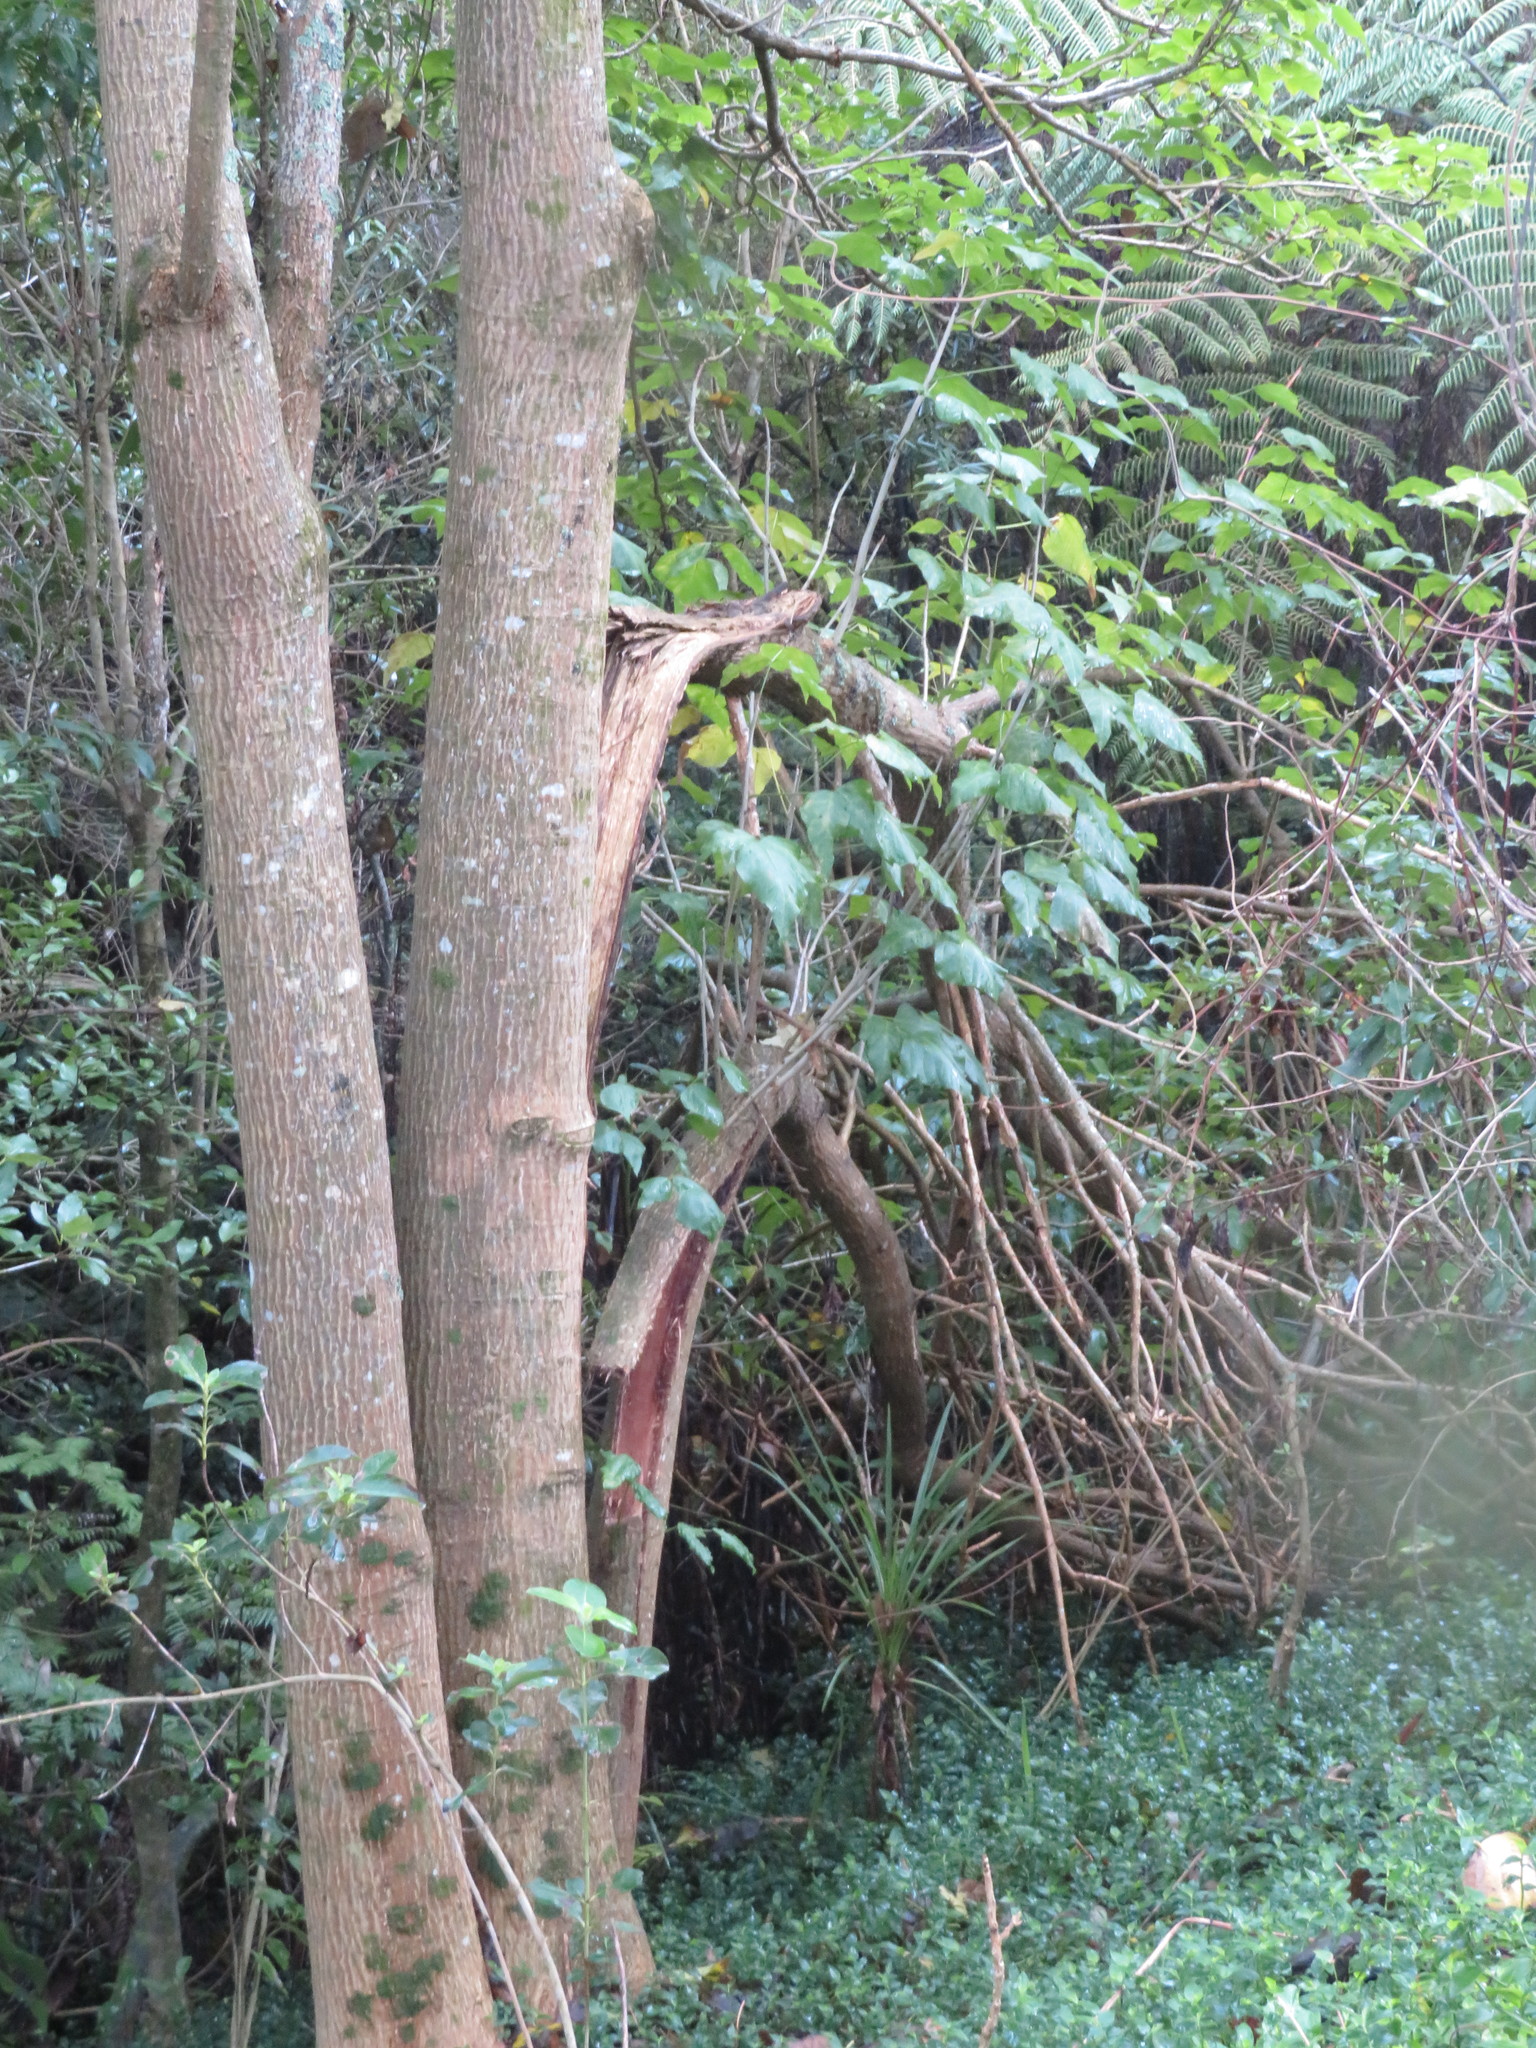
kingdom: Plantae
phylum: Tracheophyta
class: Magnoliopsida
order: Fabales
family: Fabaceae
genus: Erythrina
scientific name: Erythrina sykesii
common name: Coraltree
